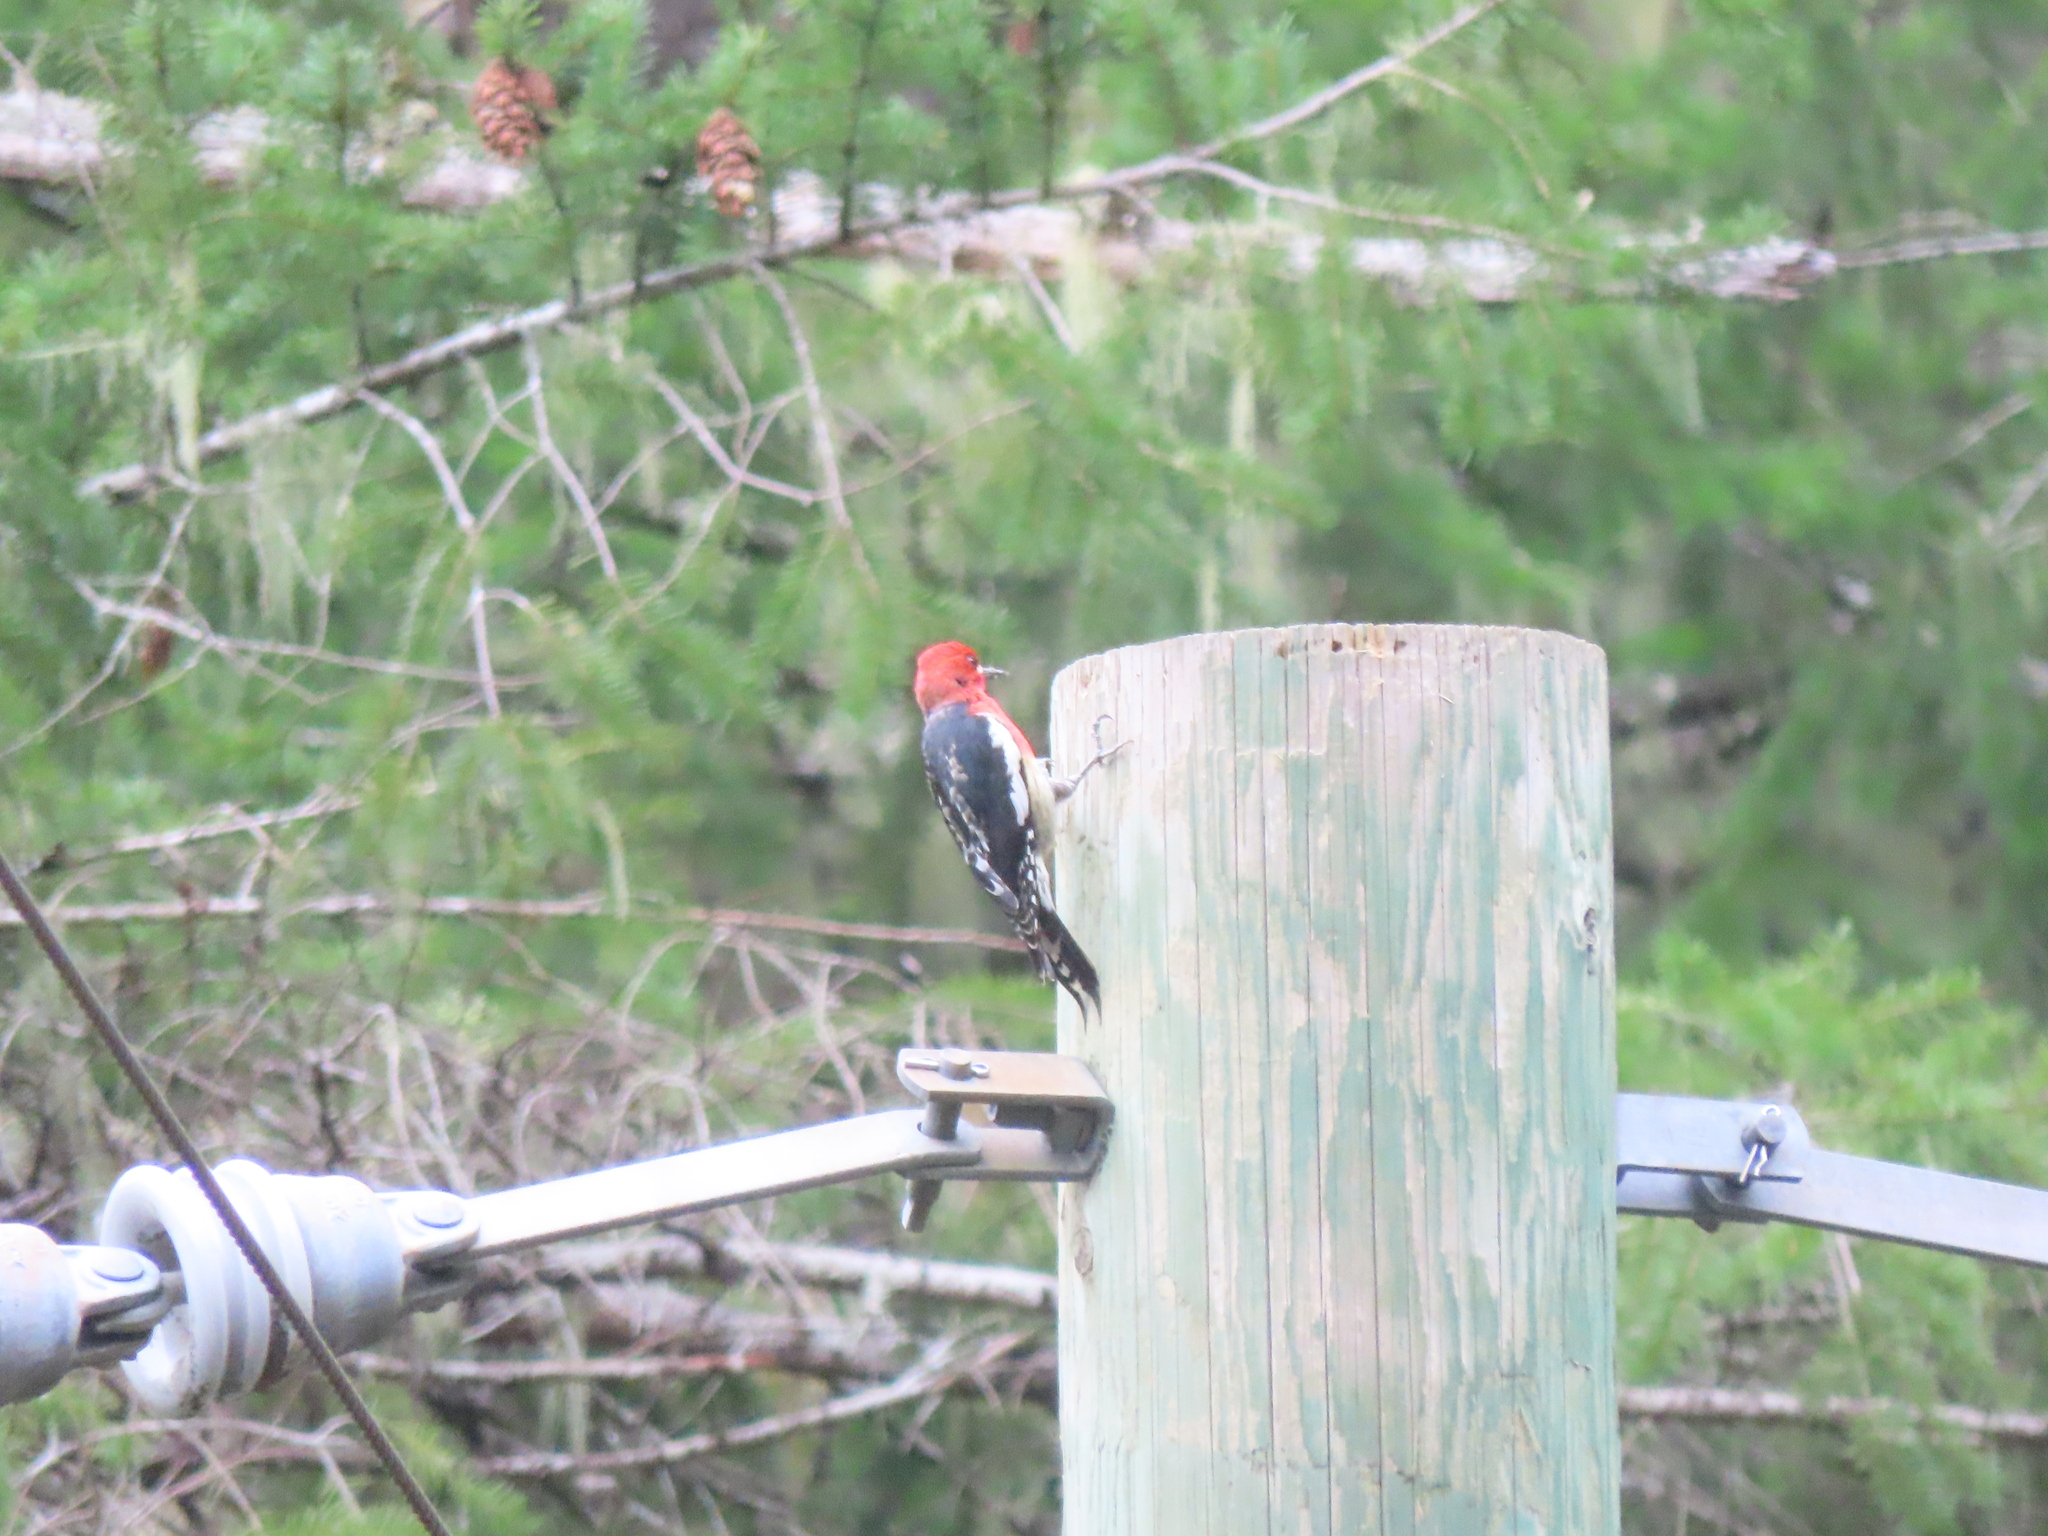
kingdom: Animalia
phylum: Chordata
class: Aves
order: Piciformes
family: Picidae
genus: Sphyrapicus
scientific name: Sphyrapicus ruber
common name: Red-breasted sapsucker
